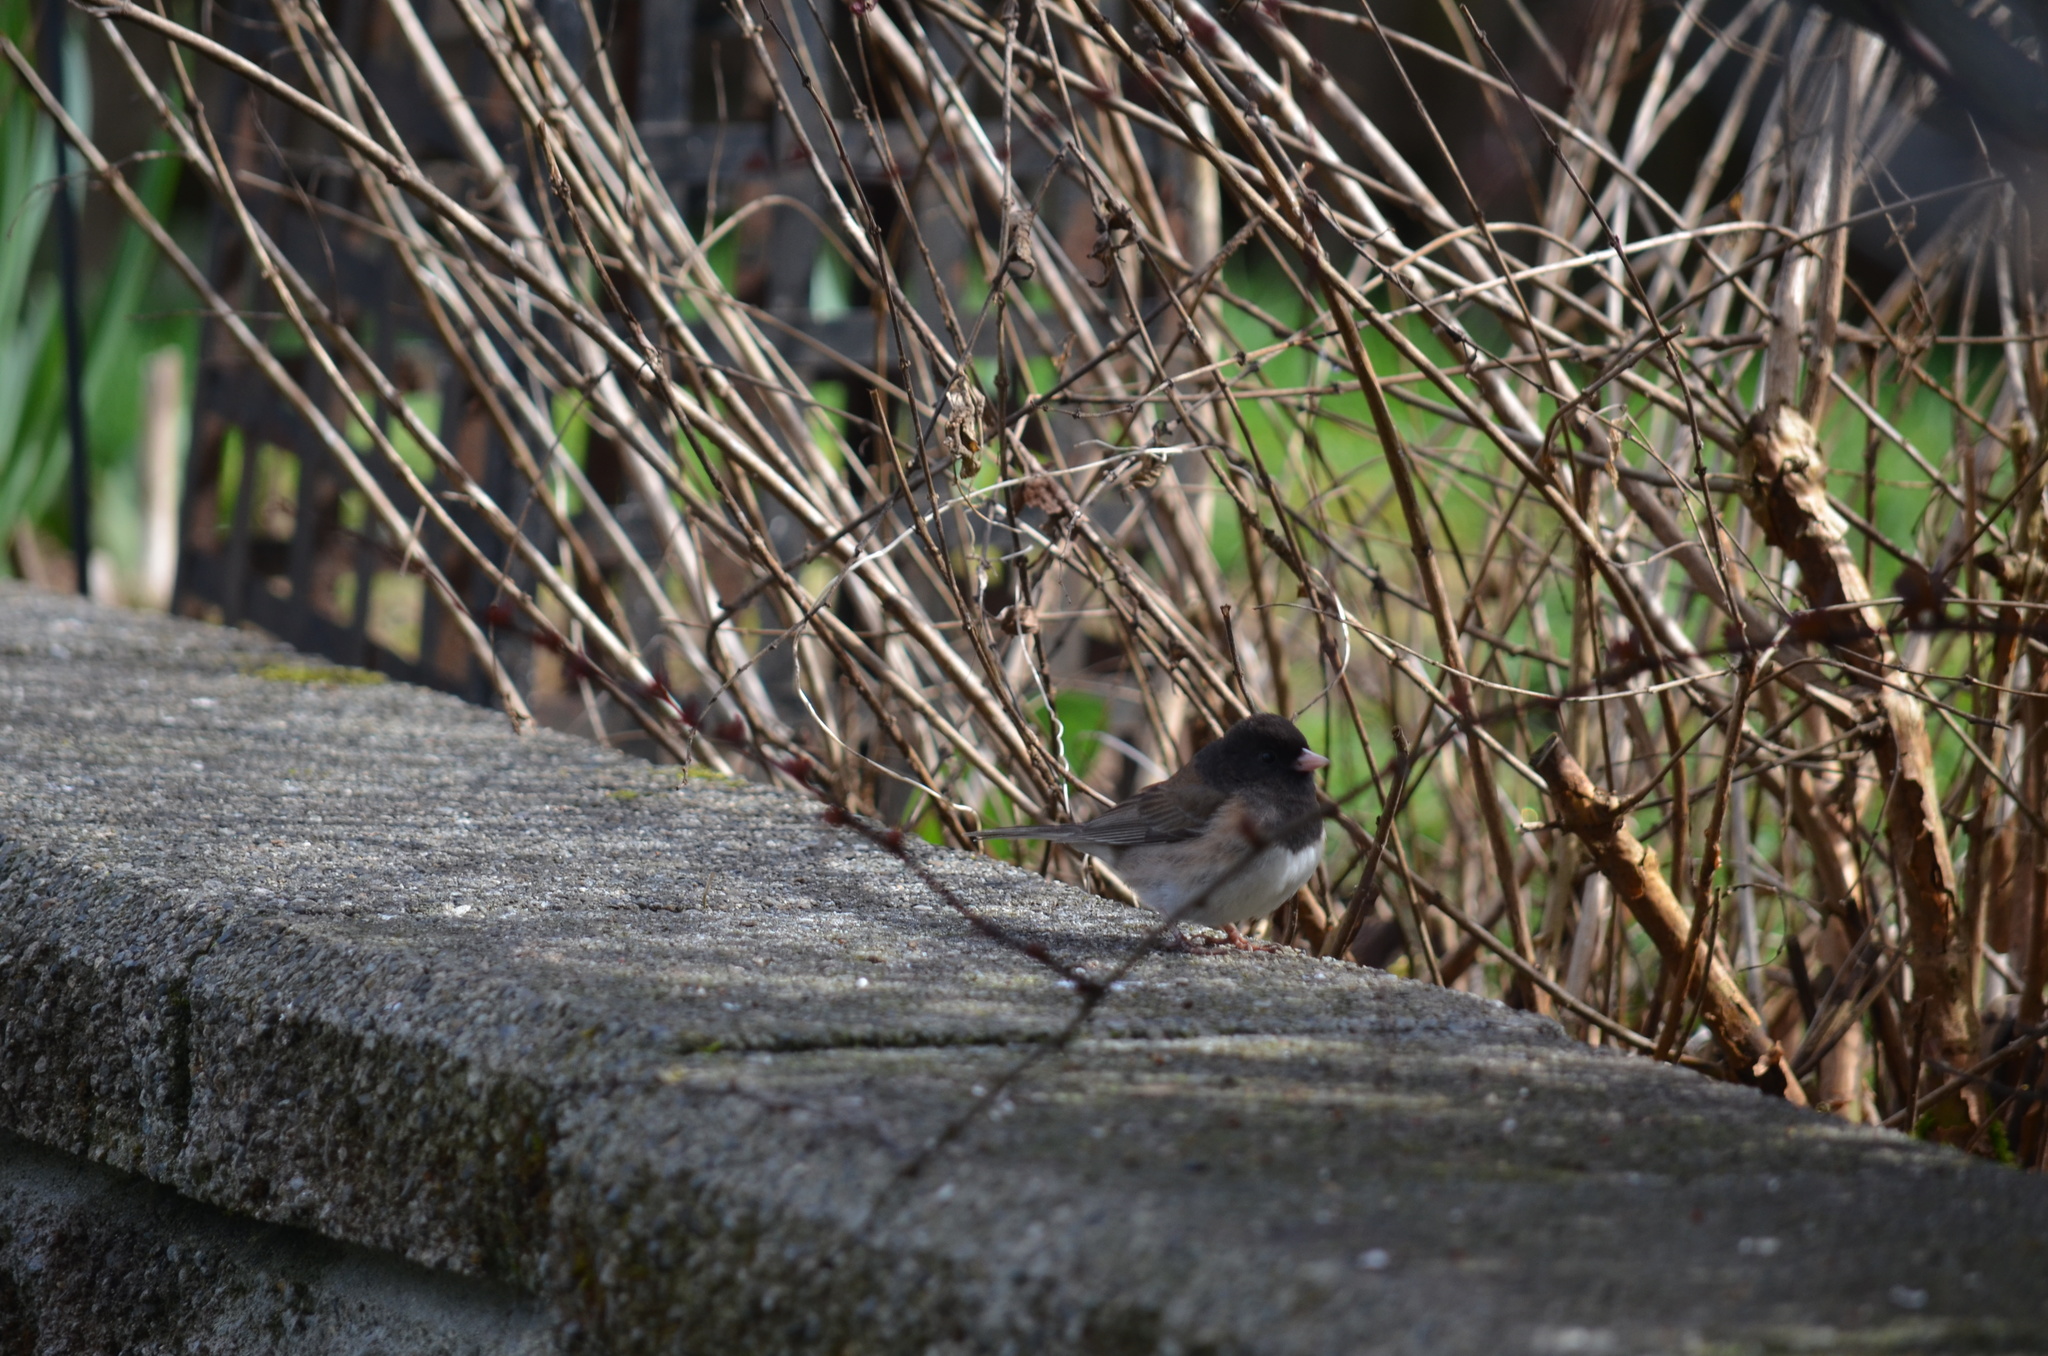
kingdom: Animalia
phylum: Chordata
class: Aves
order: Passeriformes
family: Passerellidae
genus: Junco
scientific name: Junco hyemalis
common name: Dark-eyed junco
